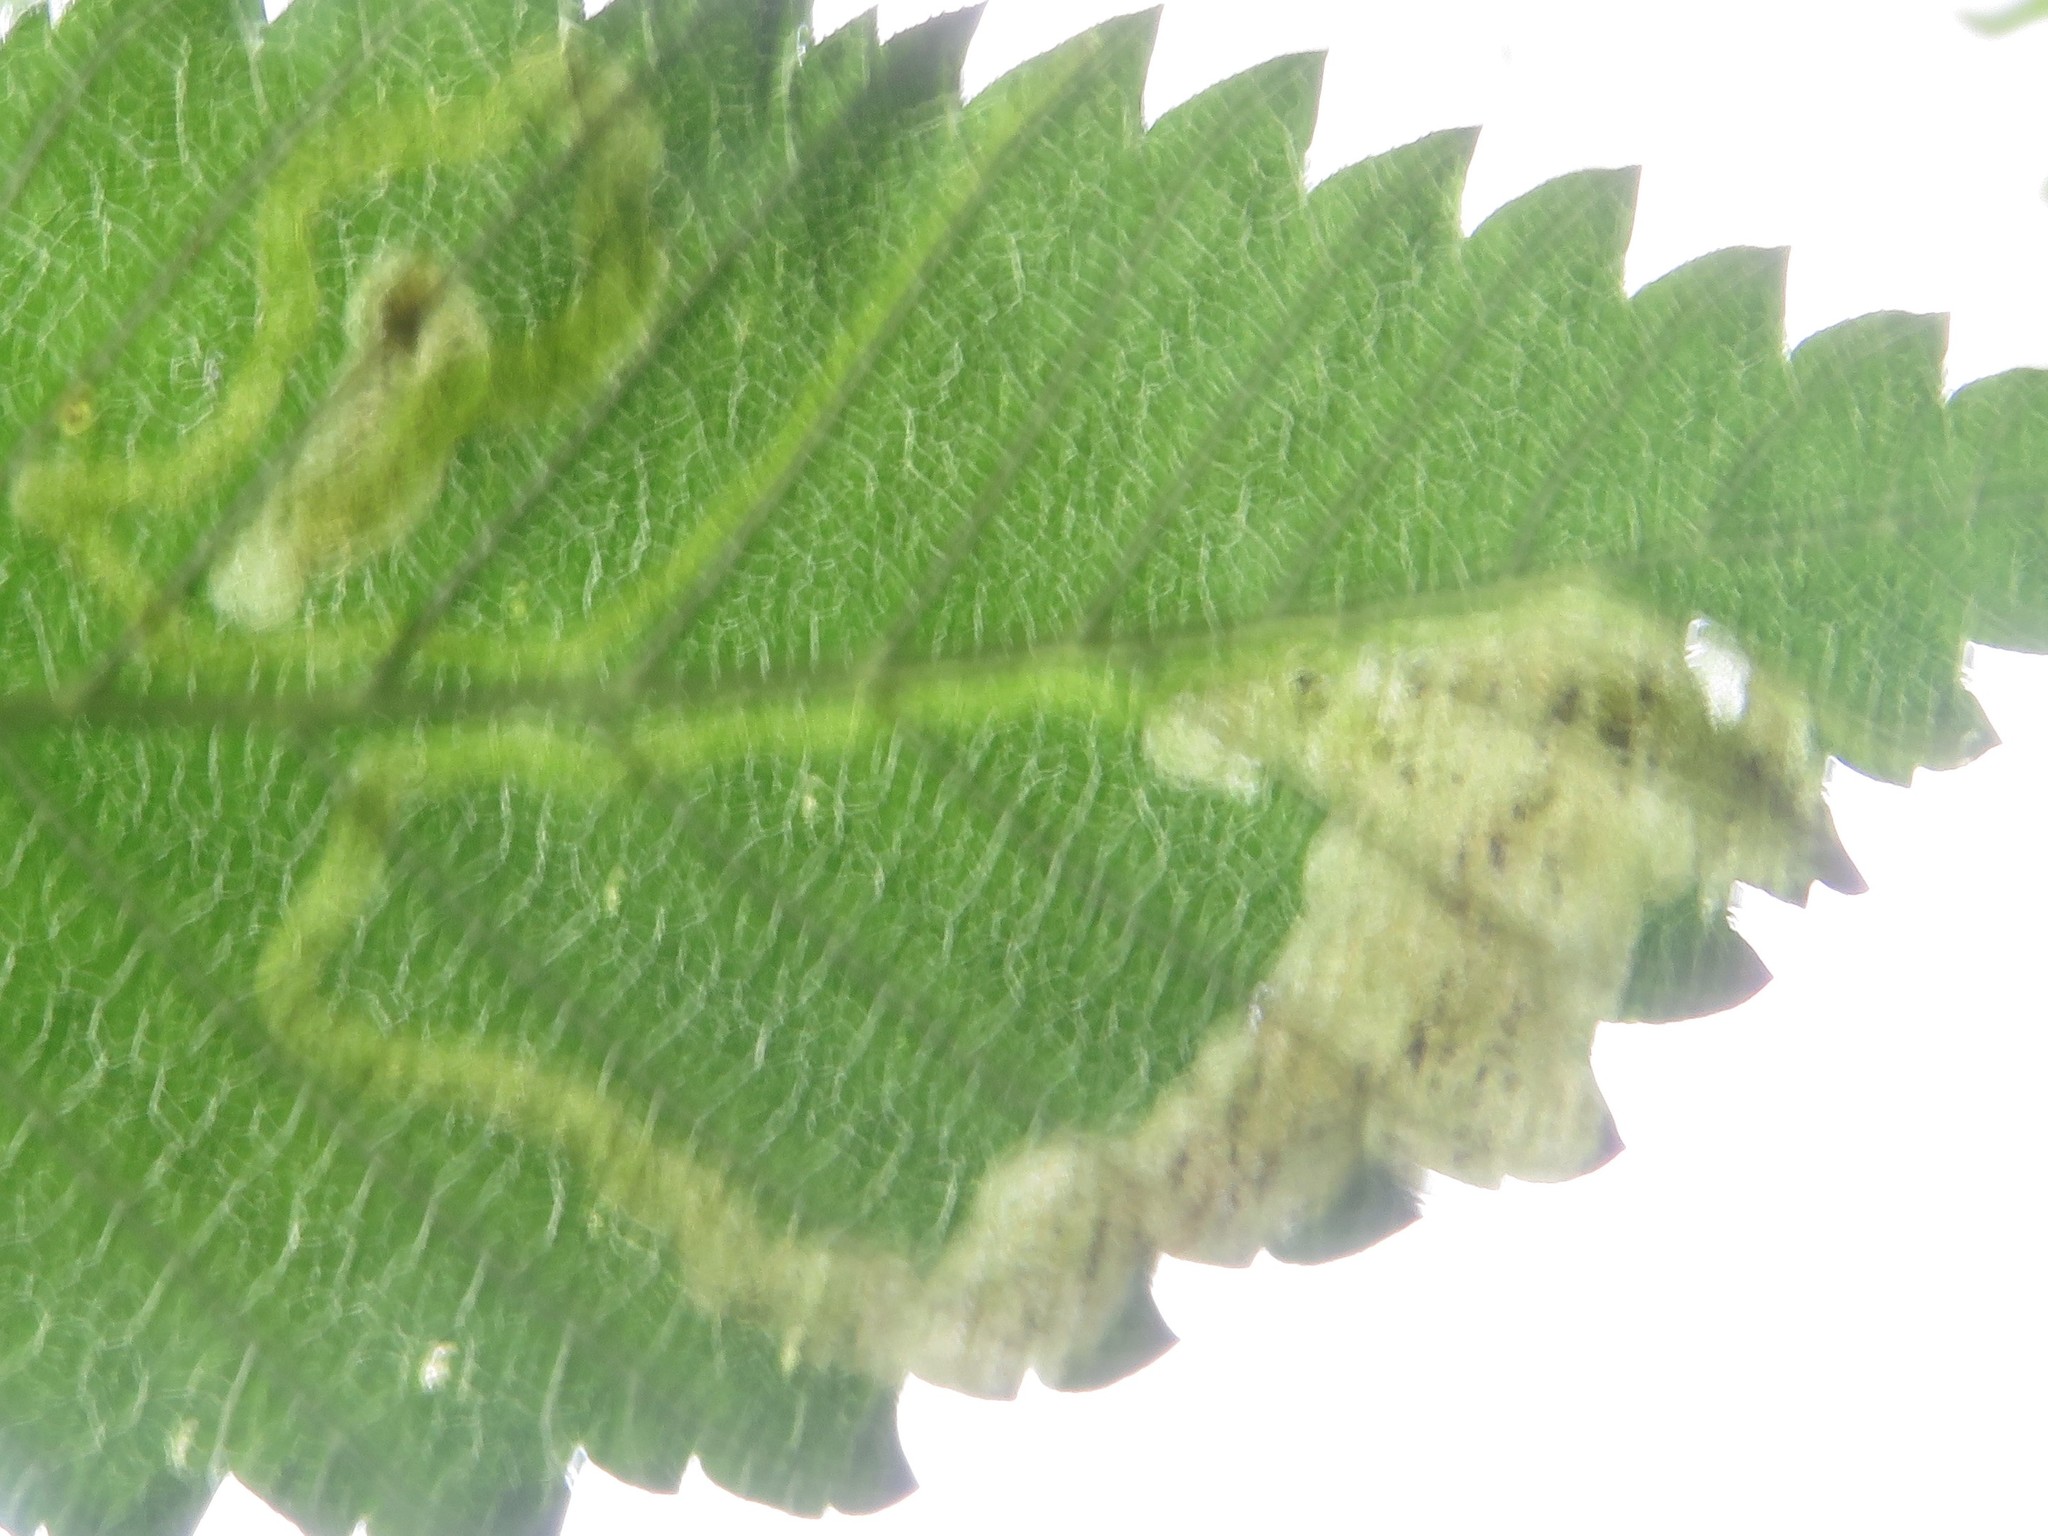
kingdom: Animalia
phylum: Arthropoda
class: Insecta
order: Diptera
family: Agromyzidae
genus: Agromyza
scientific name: Agromyza aristata
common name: Elm agromyzid leafminer
